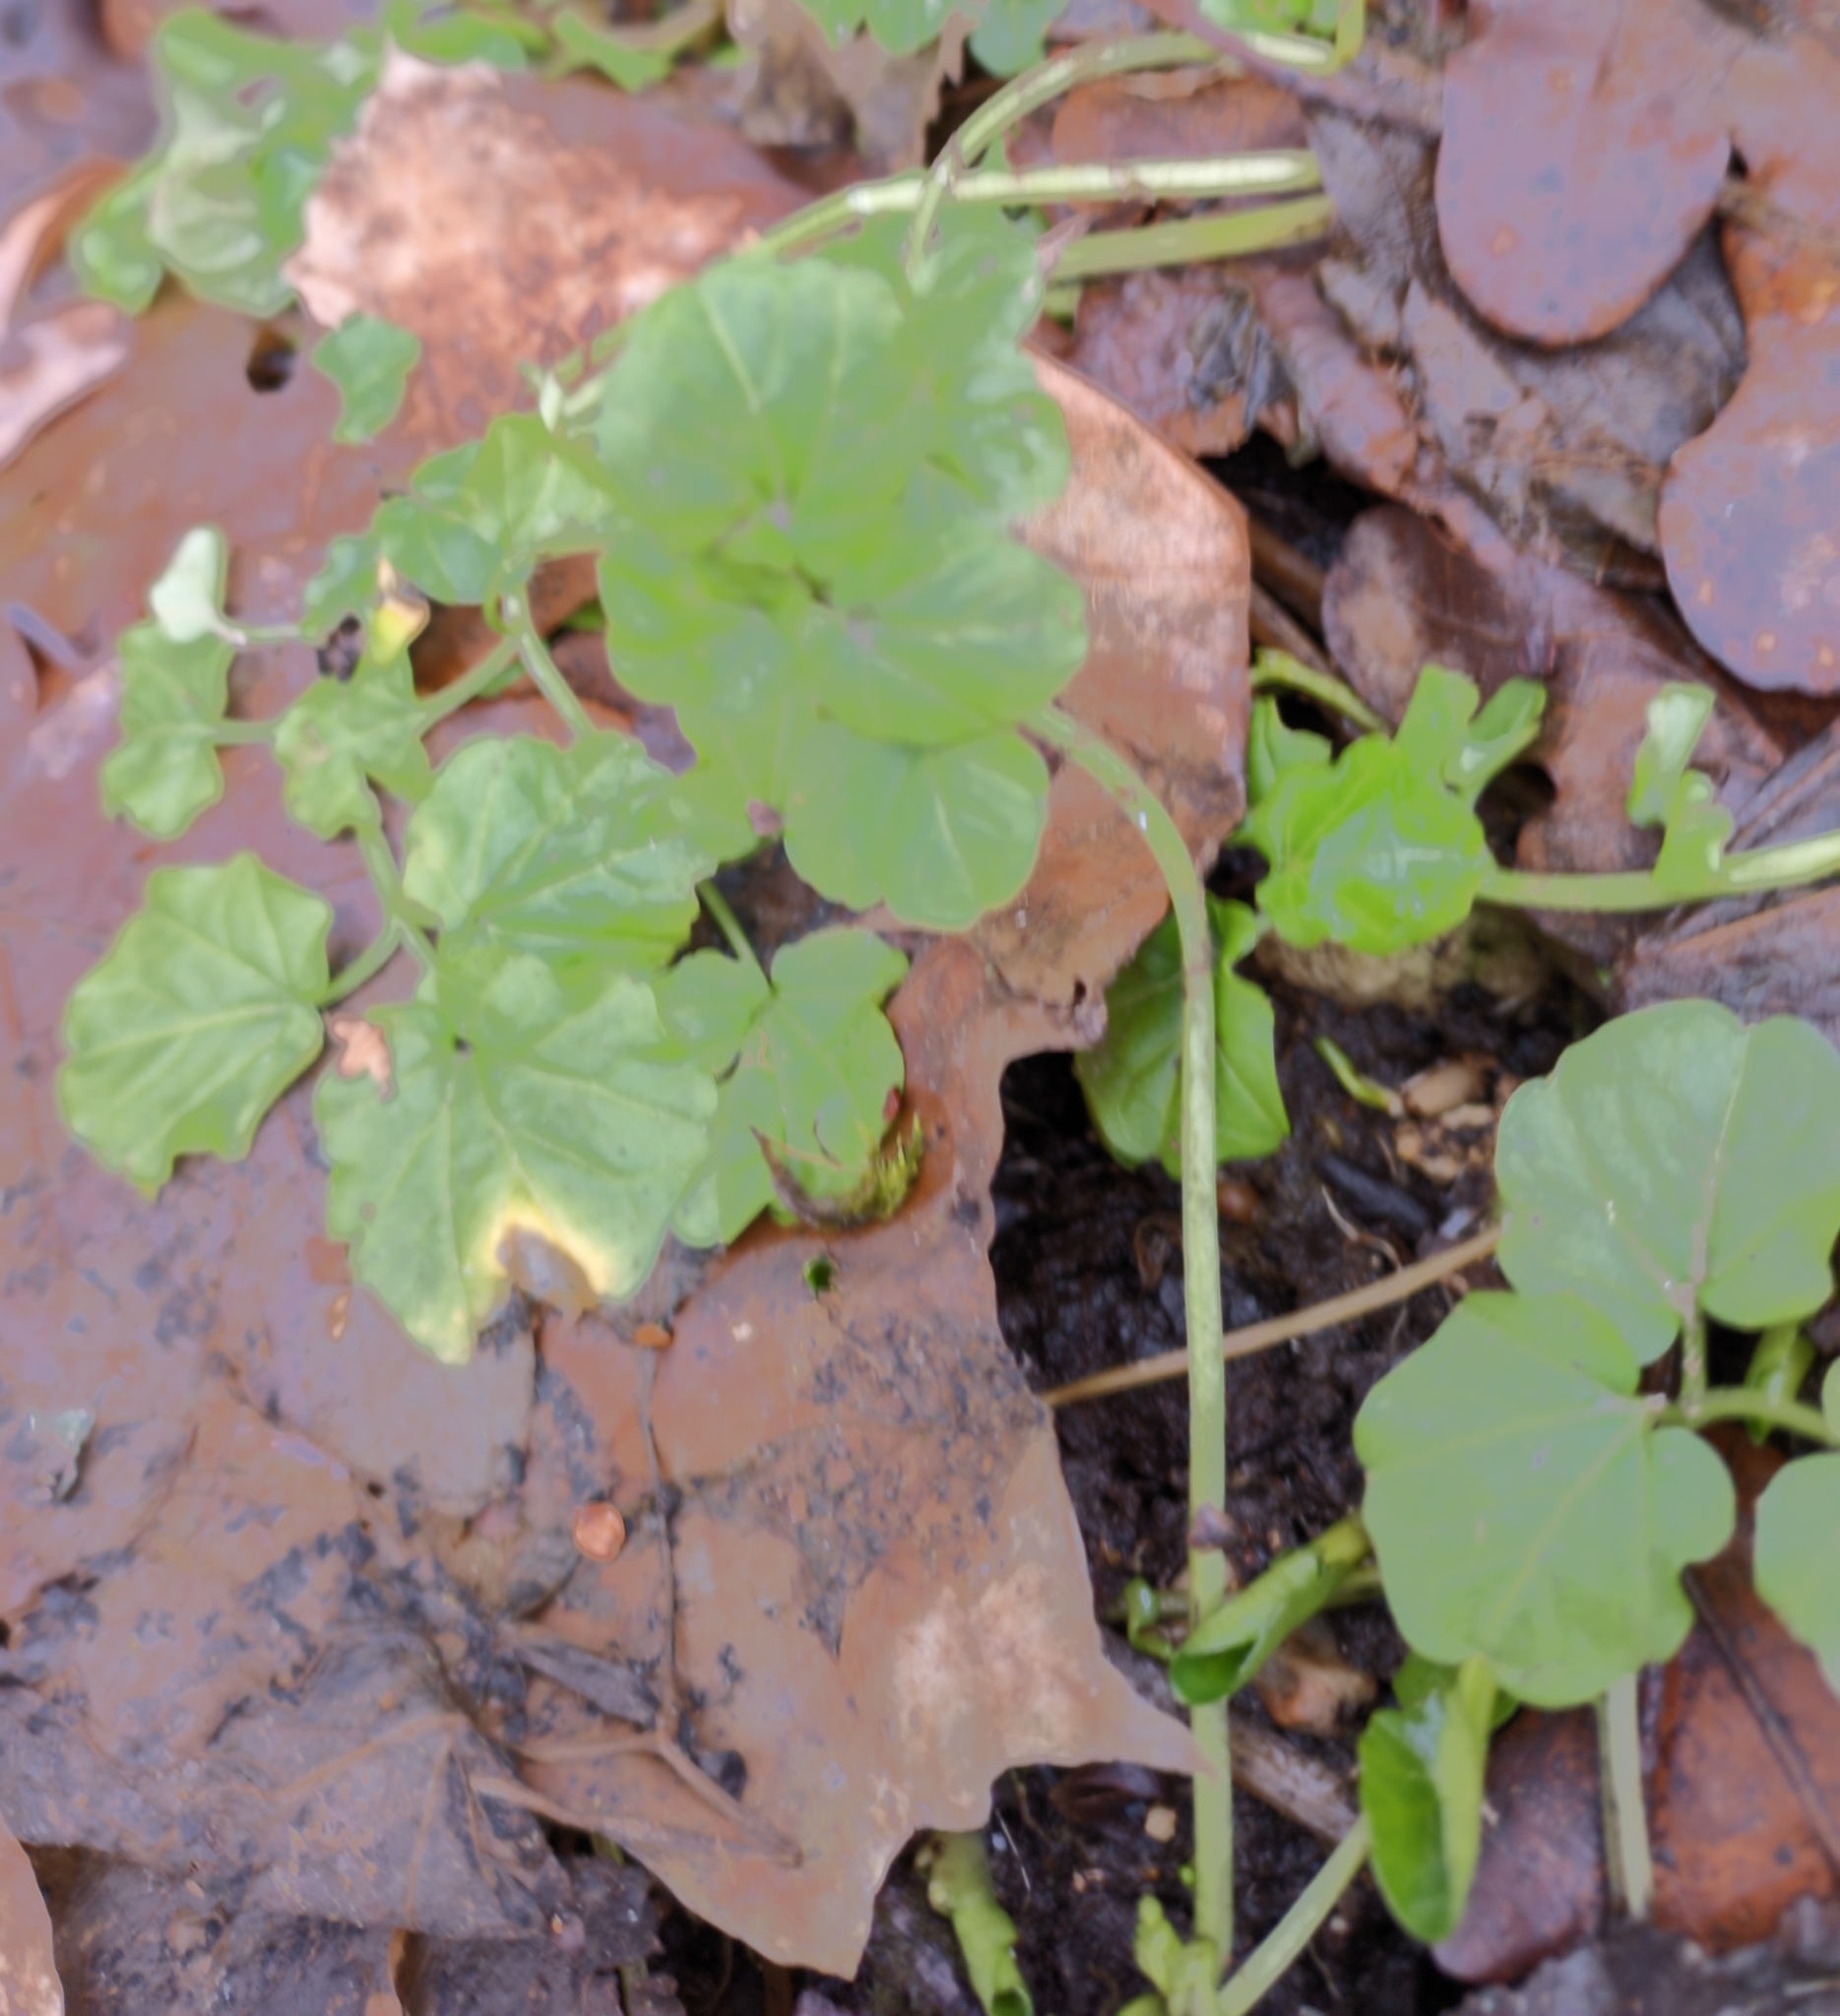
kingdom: Plantae
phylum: Tracheophyta
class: Magnoliopsida
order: Brassicales
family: Brassicaceae
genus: Cardamine
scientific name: Cardamine amara
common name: Large bitter-cress
